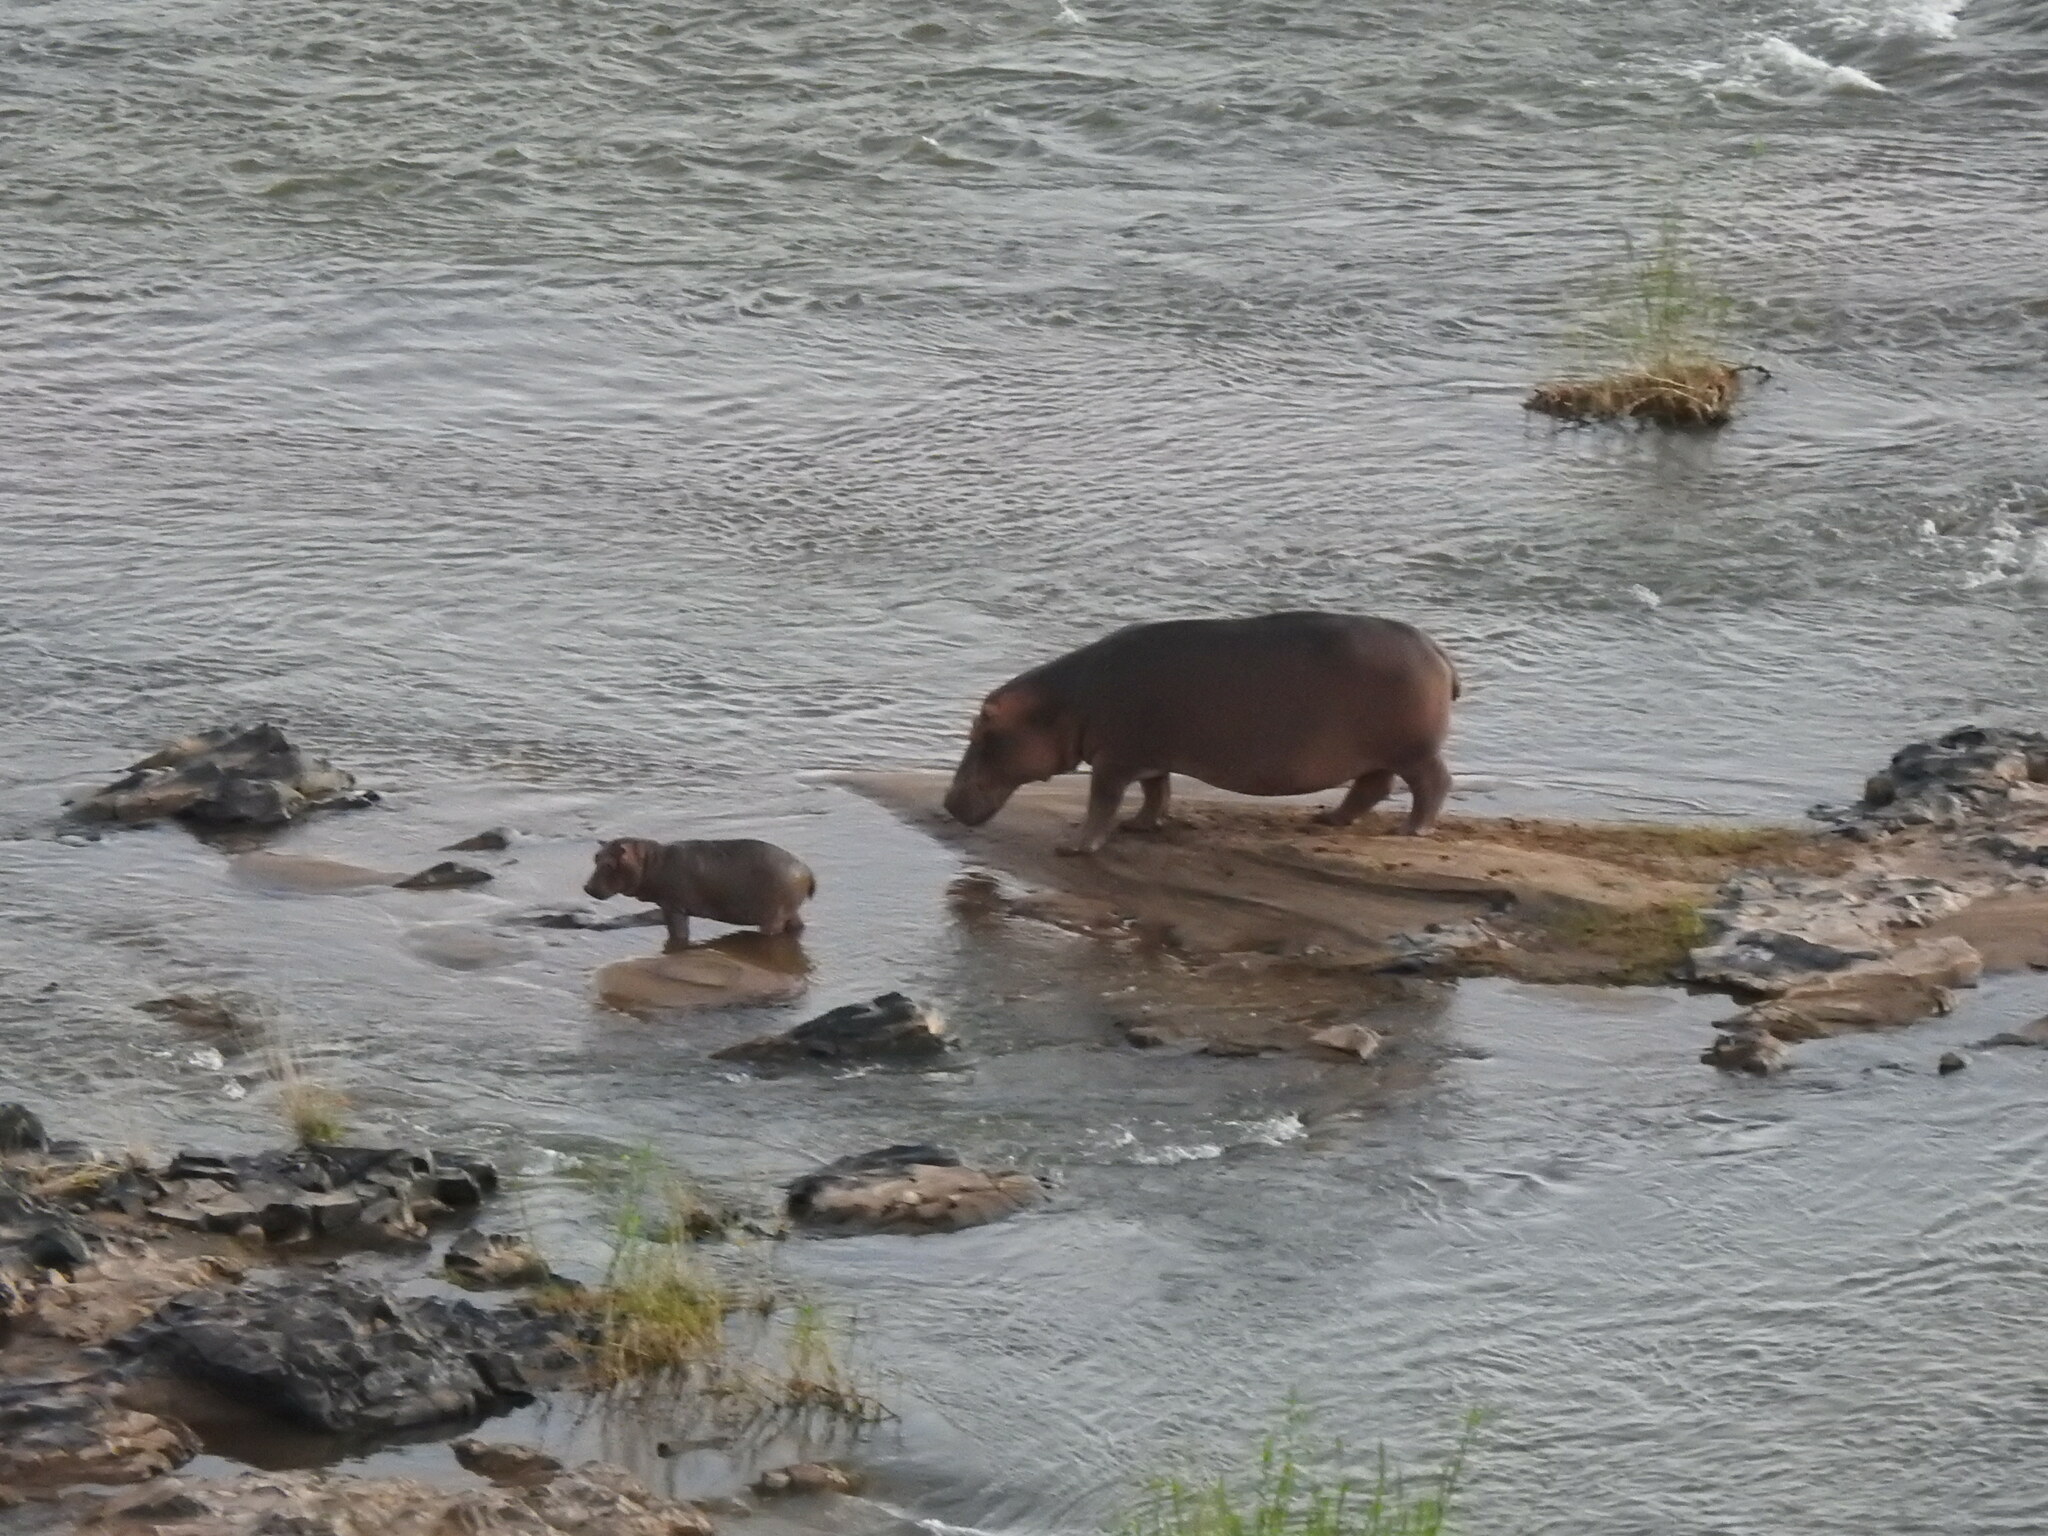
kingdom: Animalia
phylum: Chordata
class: Mammalia
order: Artiodactyla
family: Hippopotamidae
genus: Hippopotamus
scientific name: Hippopotamus amphibius
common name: Common hippopotamus
